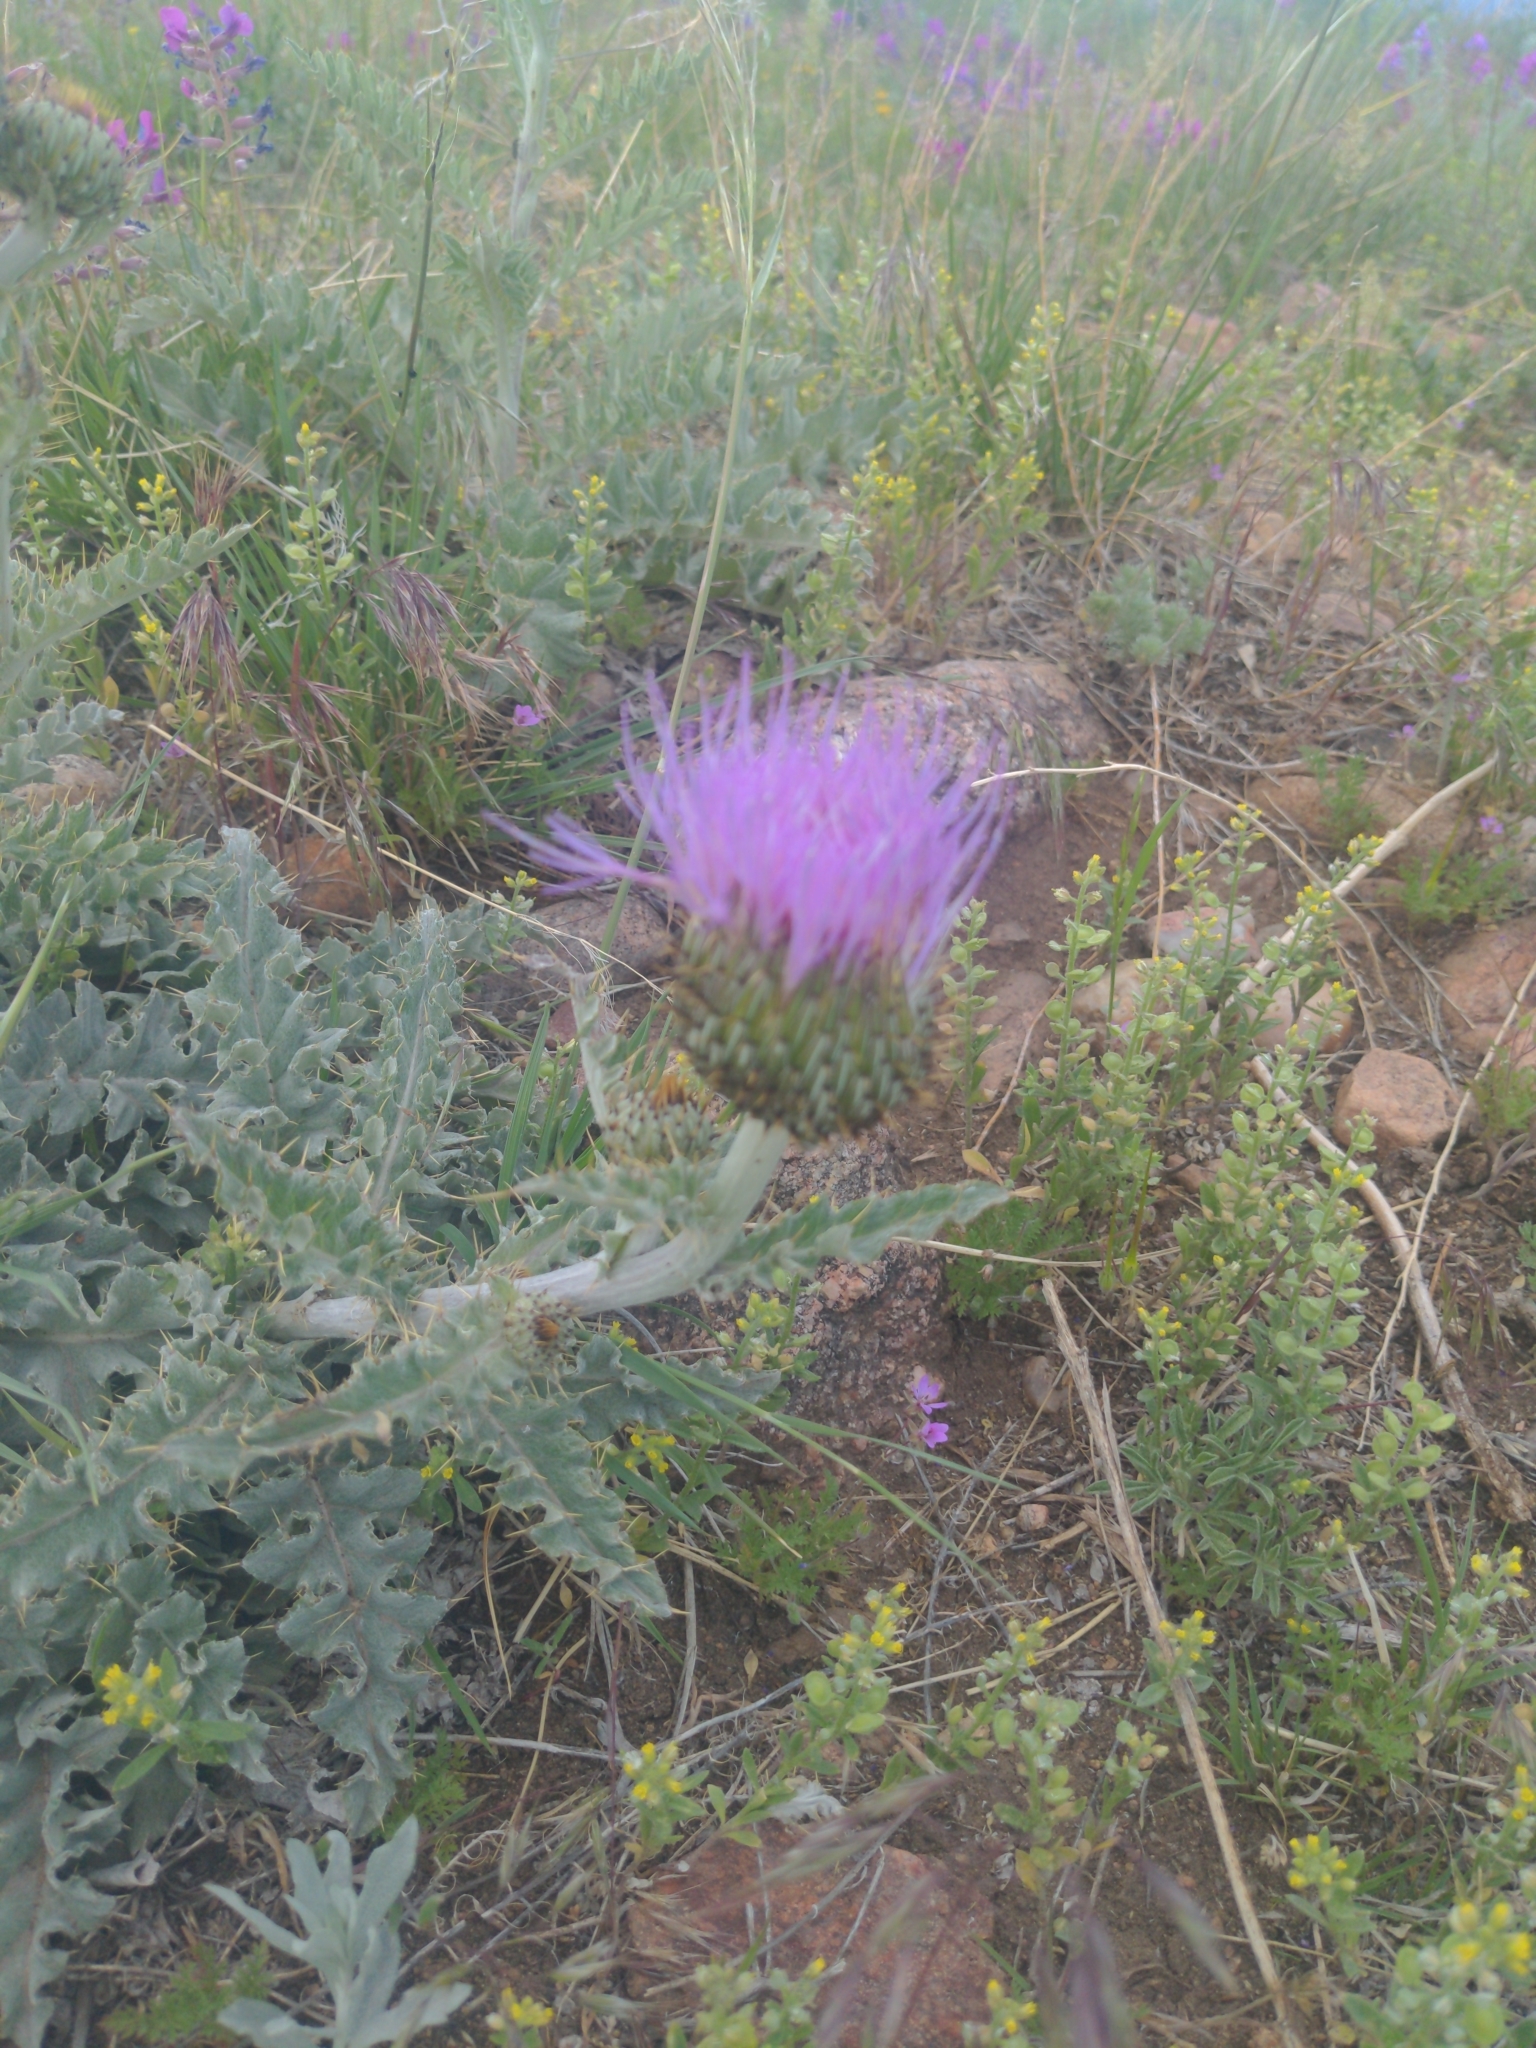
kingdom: Plantae
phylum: Tracheophyta
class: Magnoliopsida
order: Asterales
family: Asteraceae
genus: Cirsium
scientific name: Cirsium undulatum
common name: Pasture thistle
